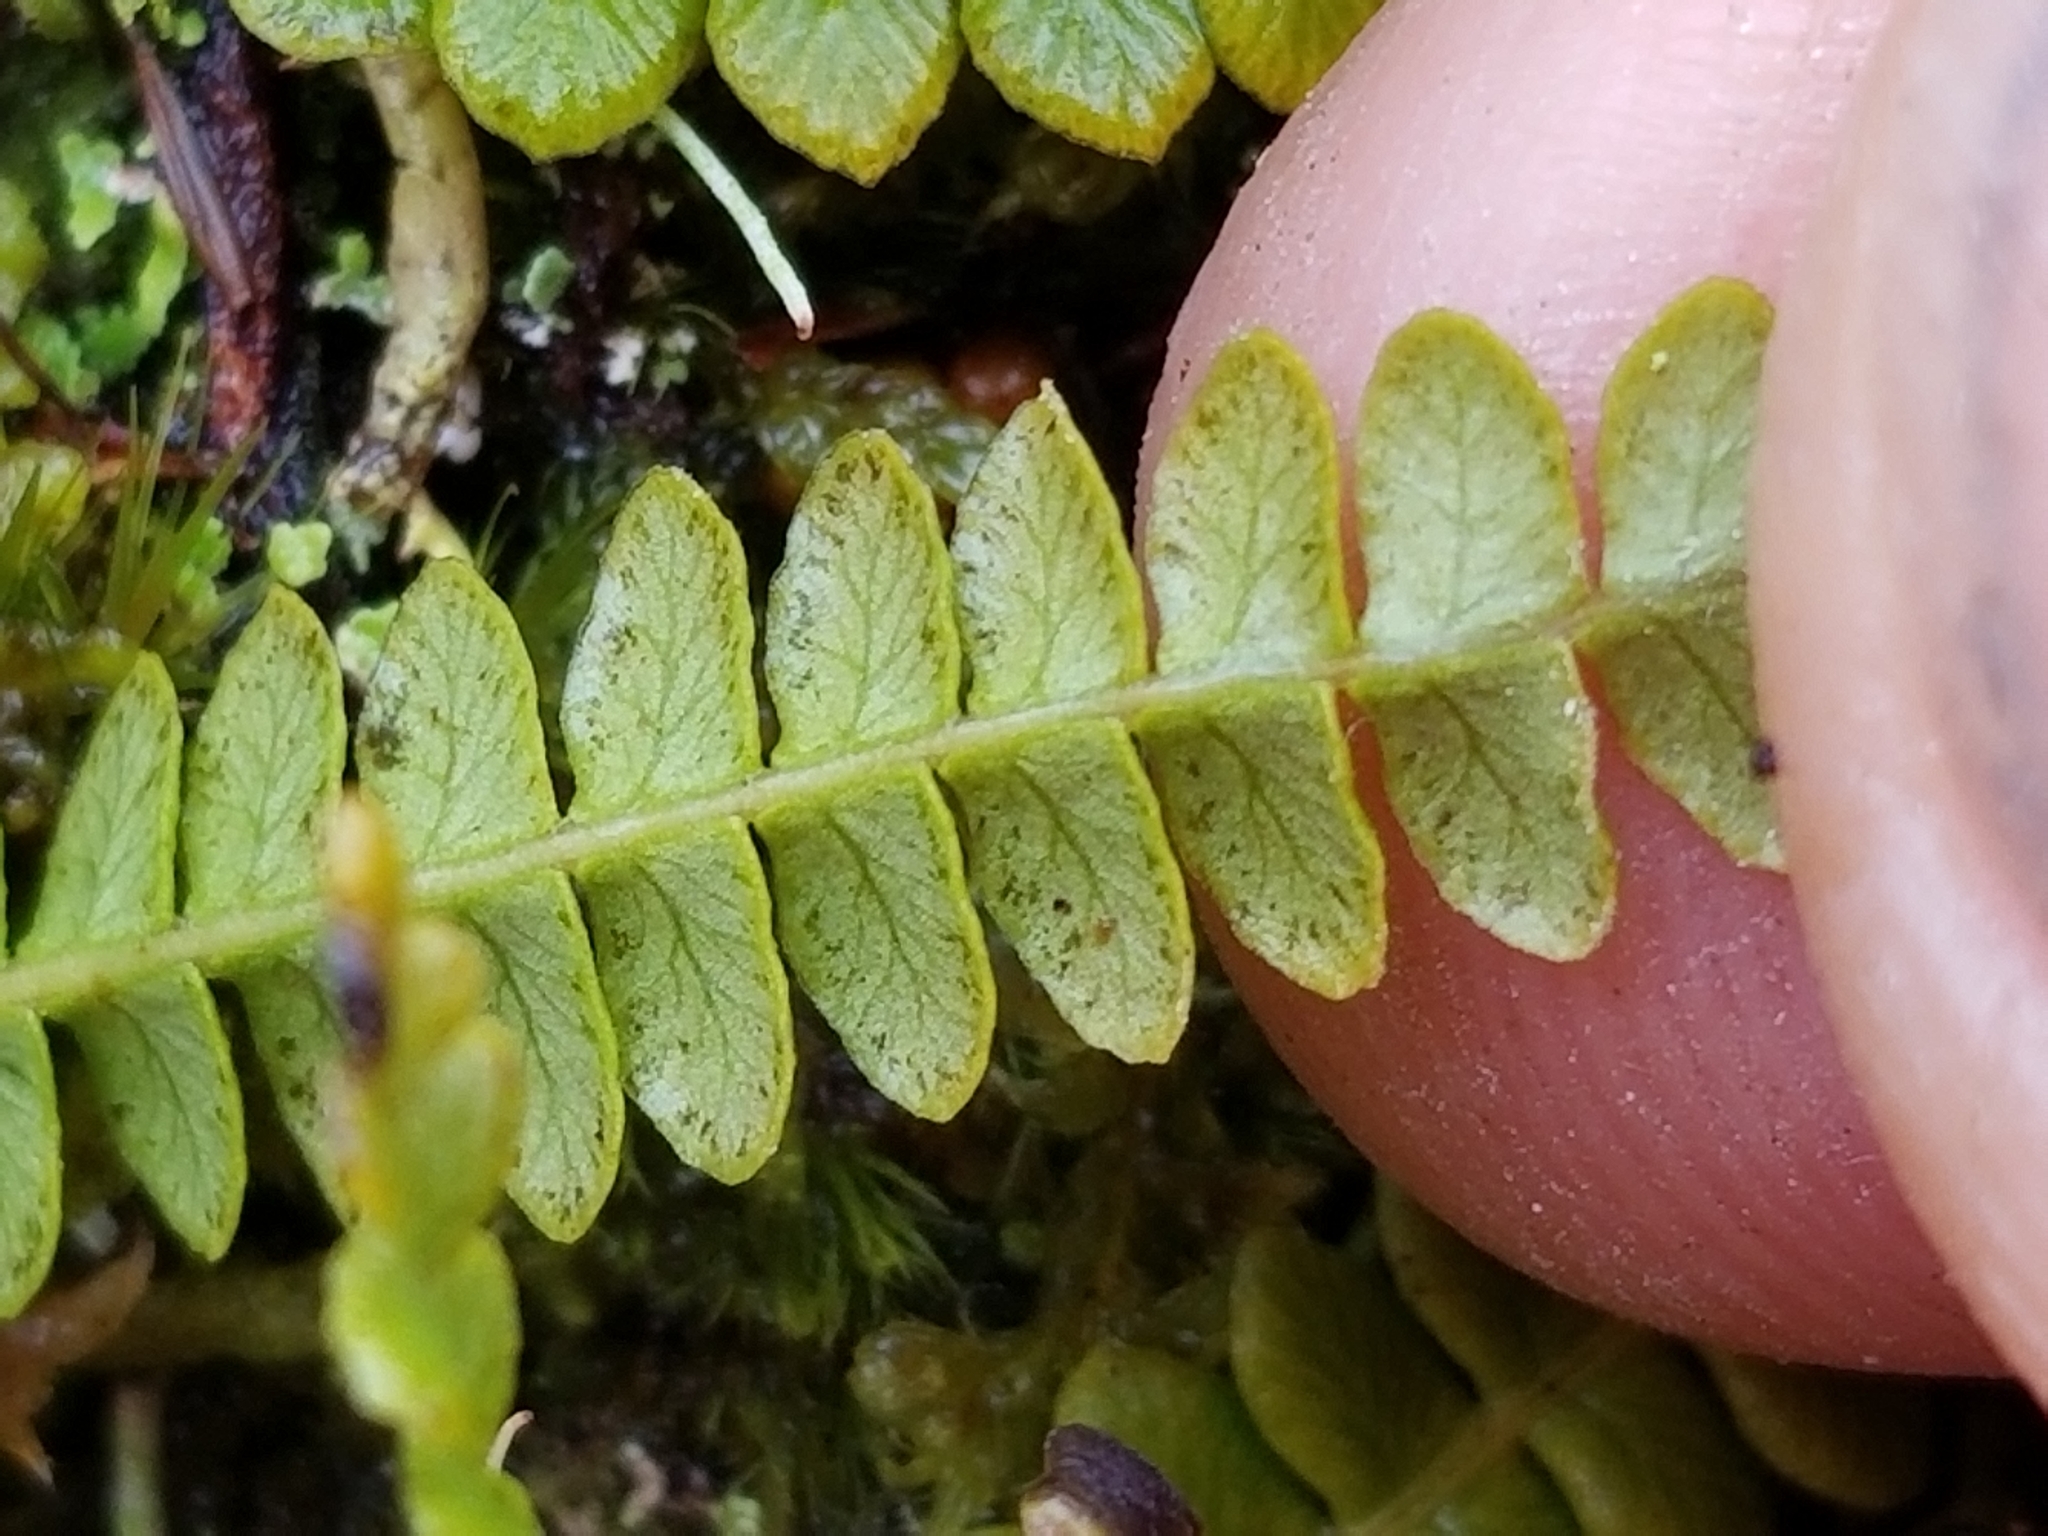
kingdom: Plantae
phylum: Tracheophyta
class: Polypodiopsida
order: Polypodiales
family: Blechnaceae
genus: Austroblechnum
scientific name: Austroblechnum penna-marina
